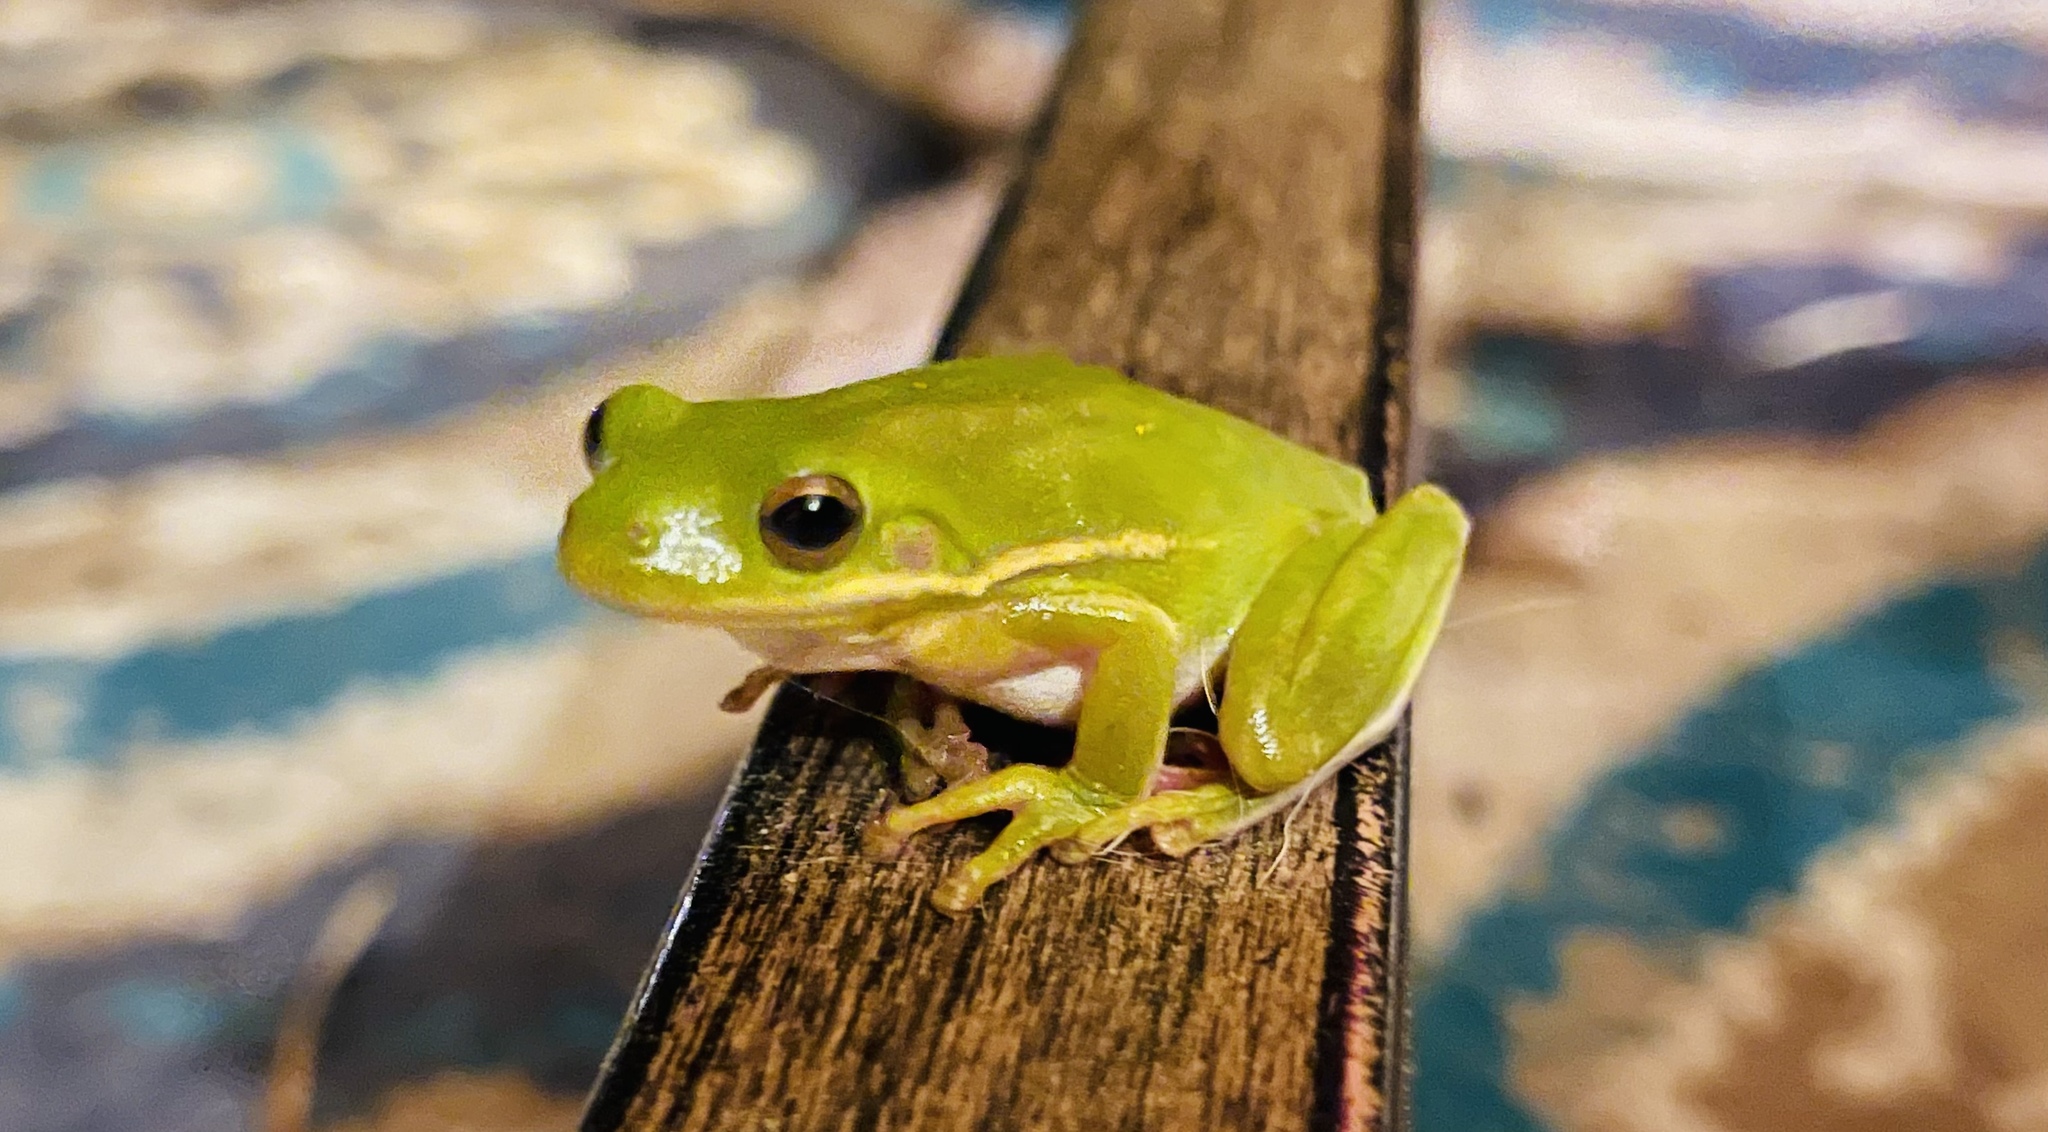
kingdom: Animalia
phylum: Chordata
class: Amphibia
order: Anura
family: Hylidae
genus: Dryophytes
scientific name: Dryophytes cinereus
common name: Green treefrog
